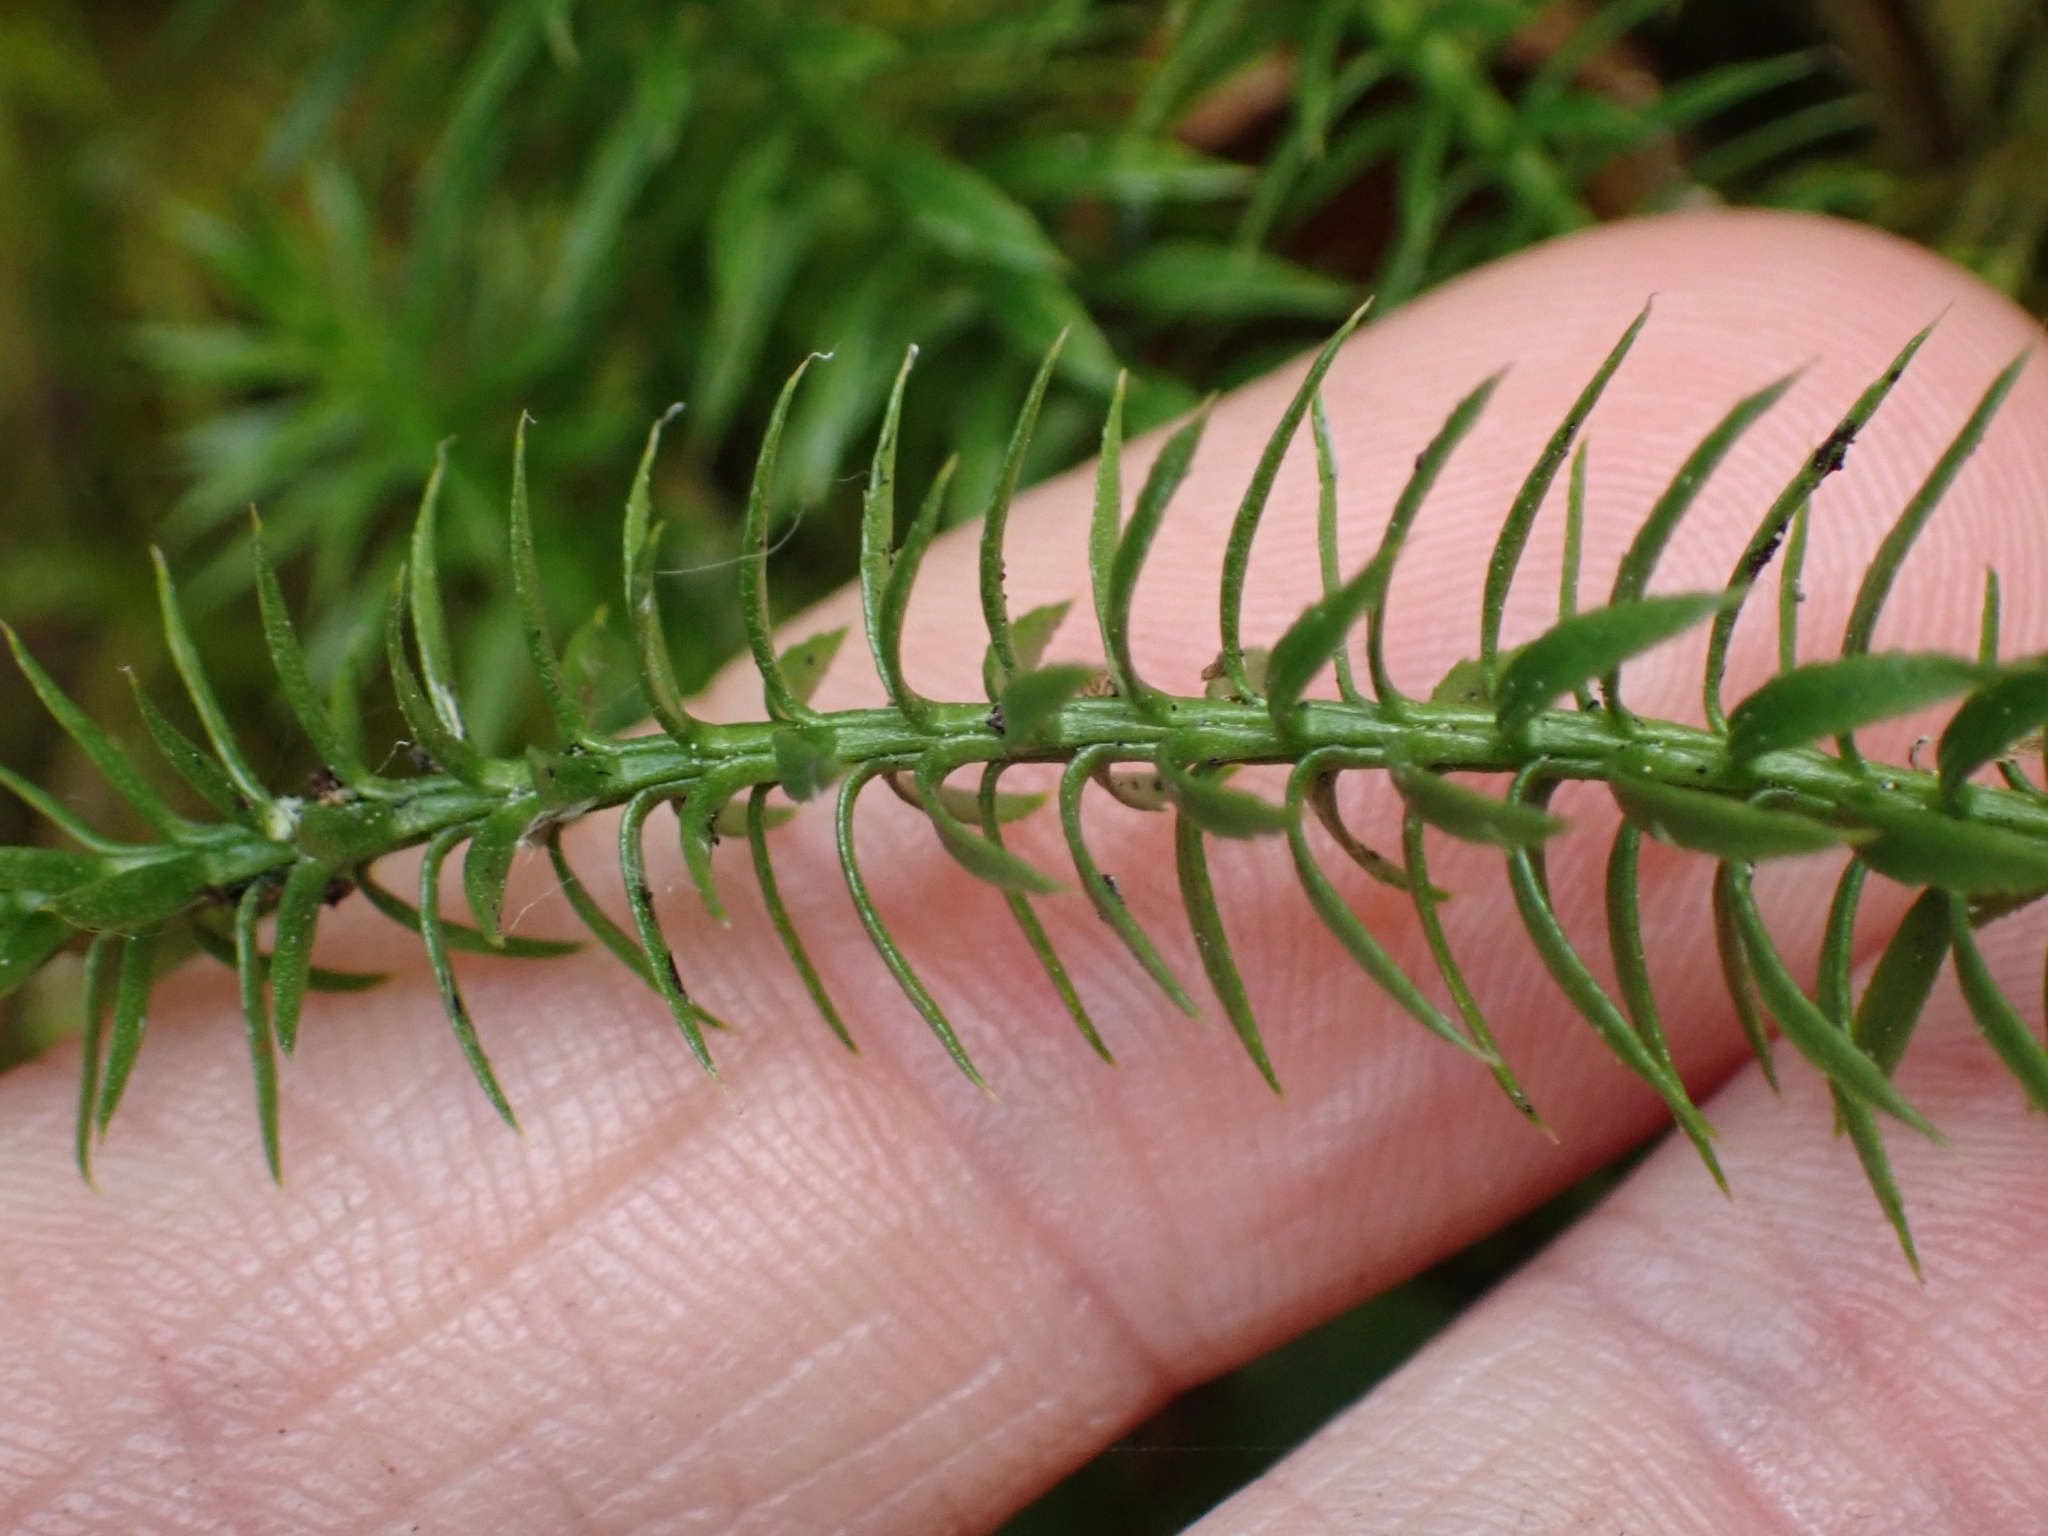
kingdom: Plantae
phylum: Tracheophyta
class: Lycopodiopsida
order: Lycopodiales
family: Lycopodiaceae
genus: Spinulum
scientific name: Spinulum annotinum
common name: Interrupted club-moss
